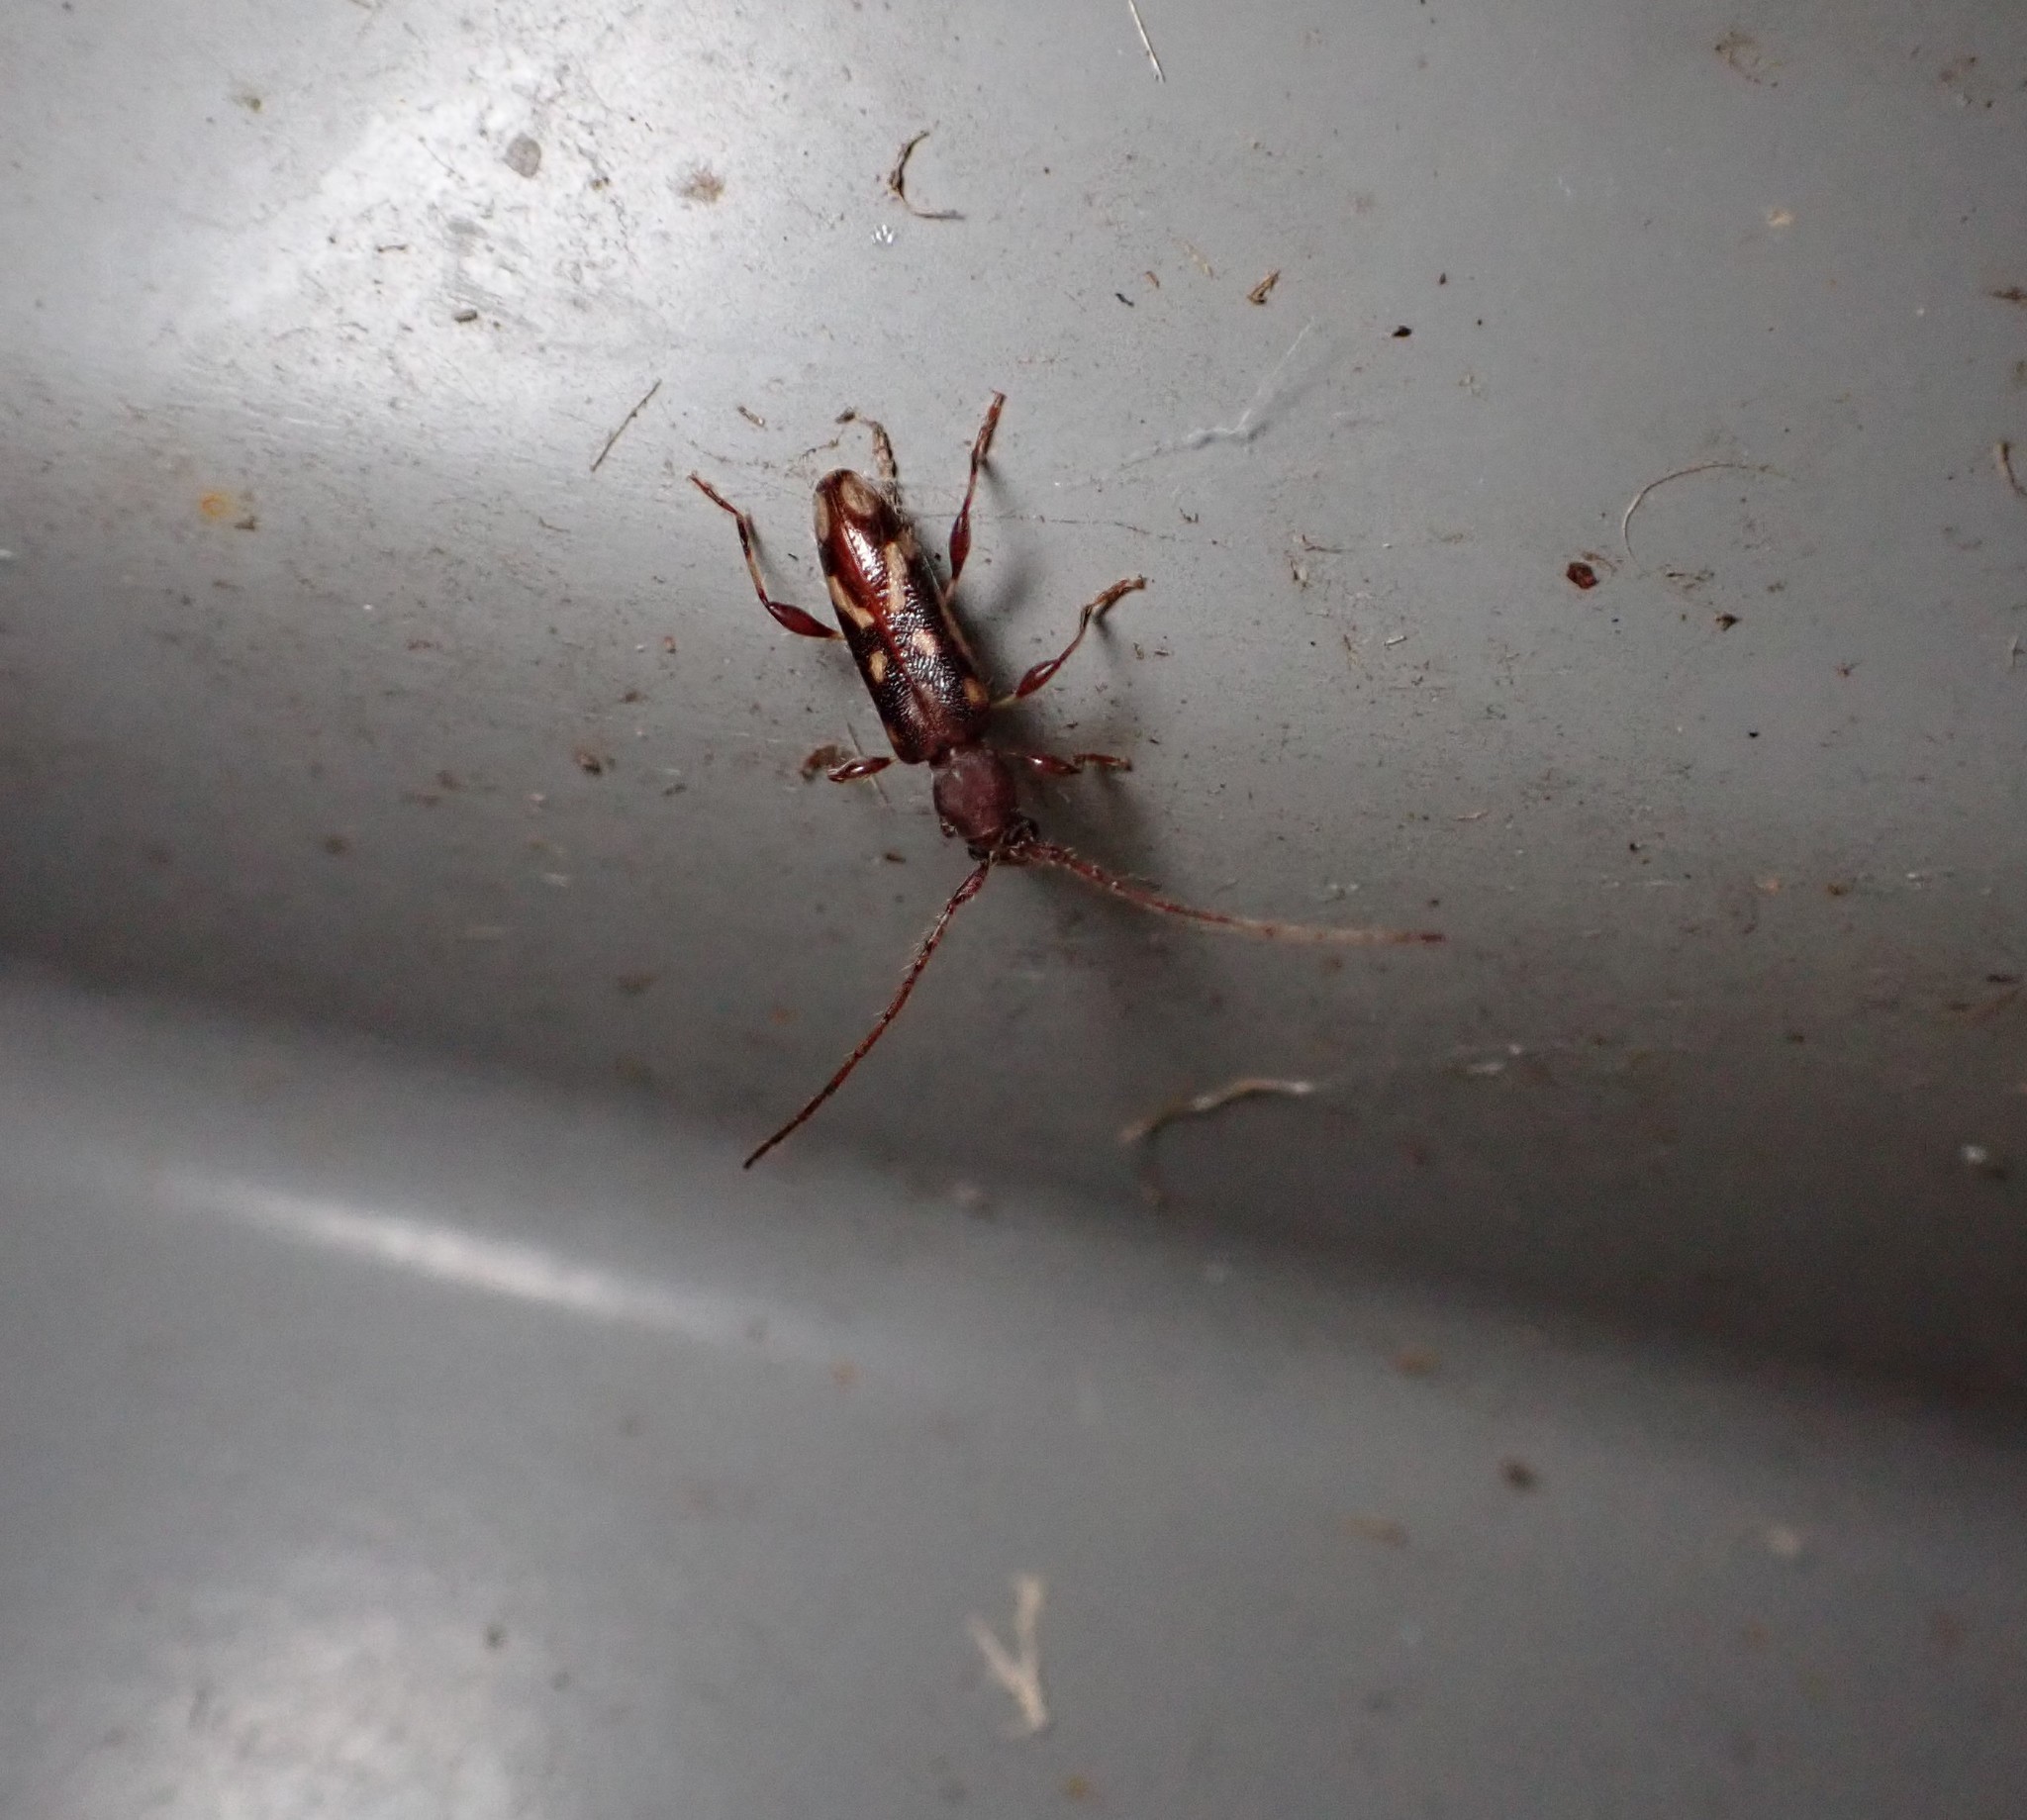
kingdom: Animalia
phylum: Arthropoda
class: Insecta
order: Coleoptera
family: Cerambycidae
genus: Bethelium
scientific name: Bethelium signiferum
